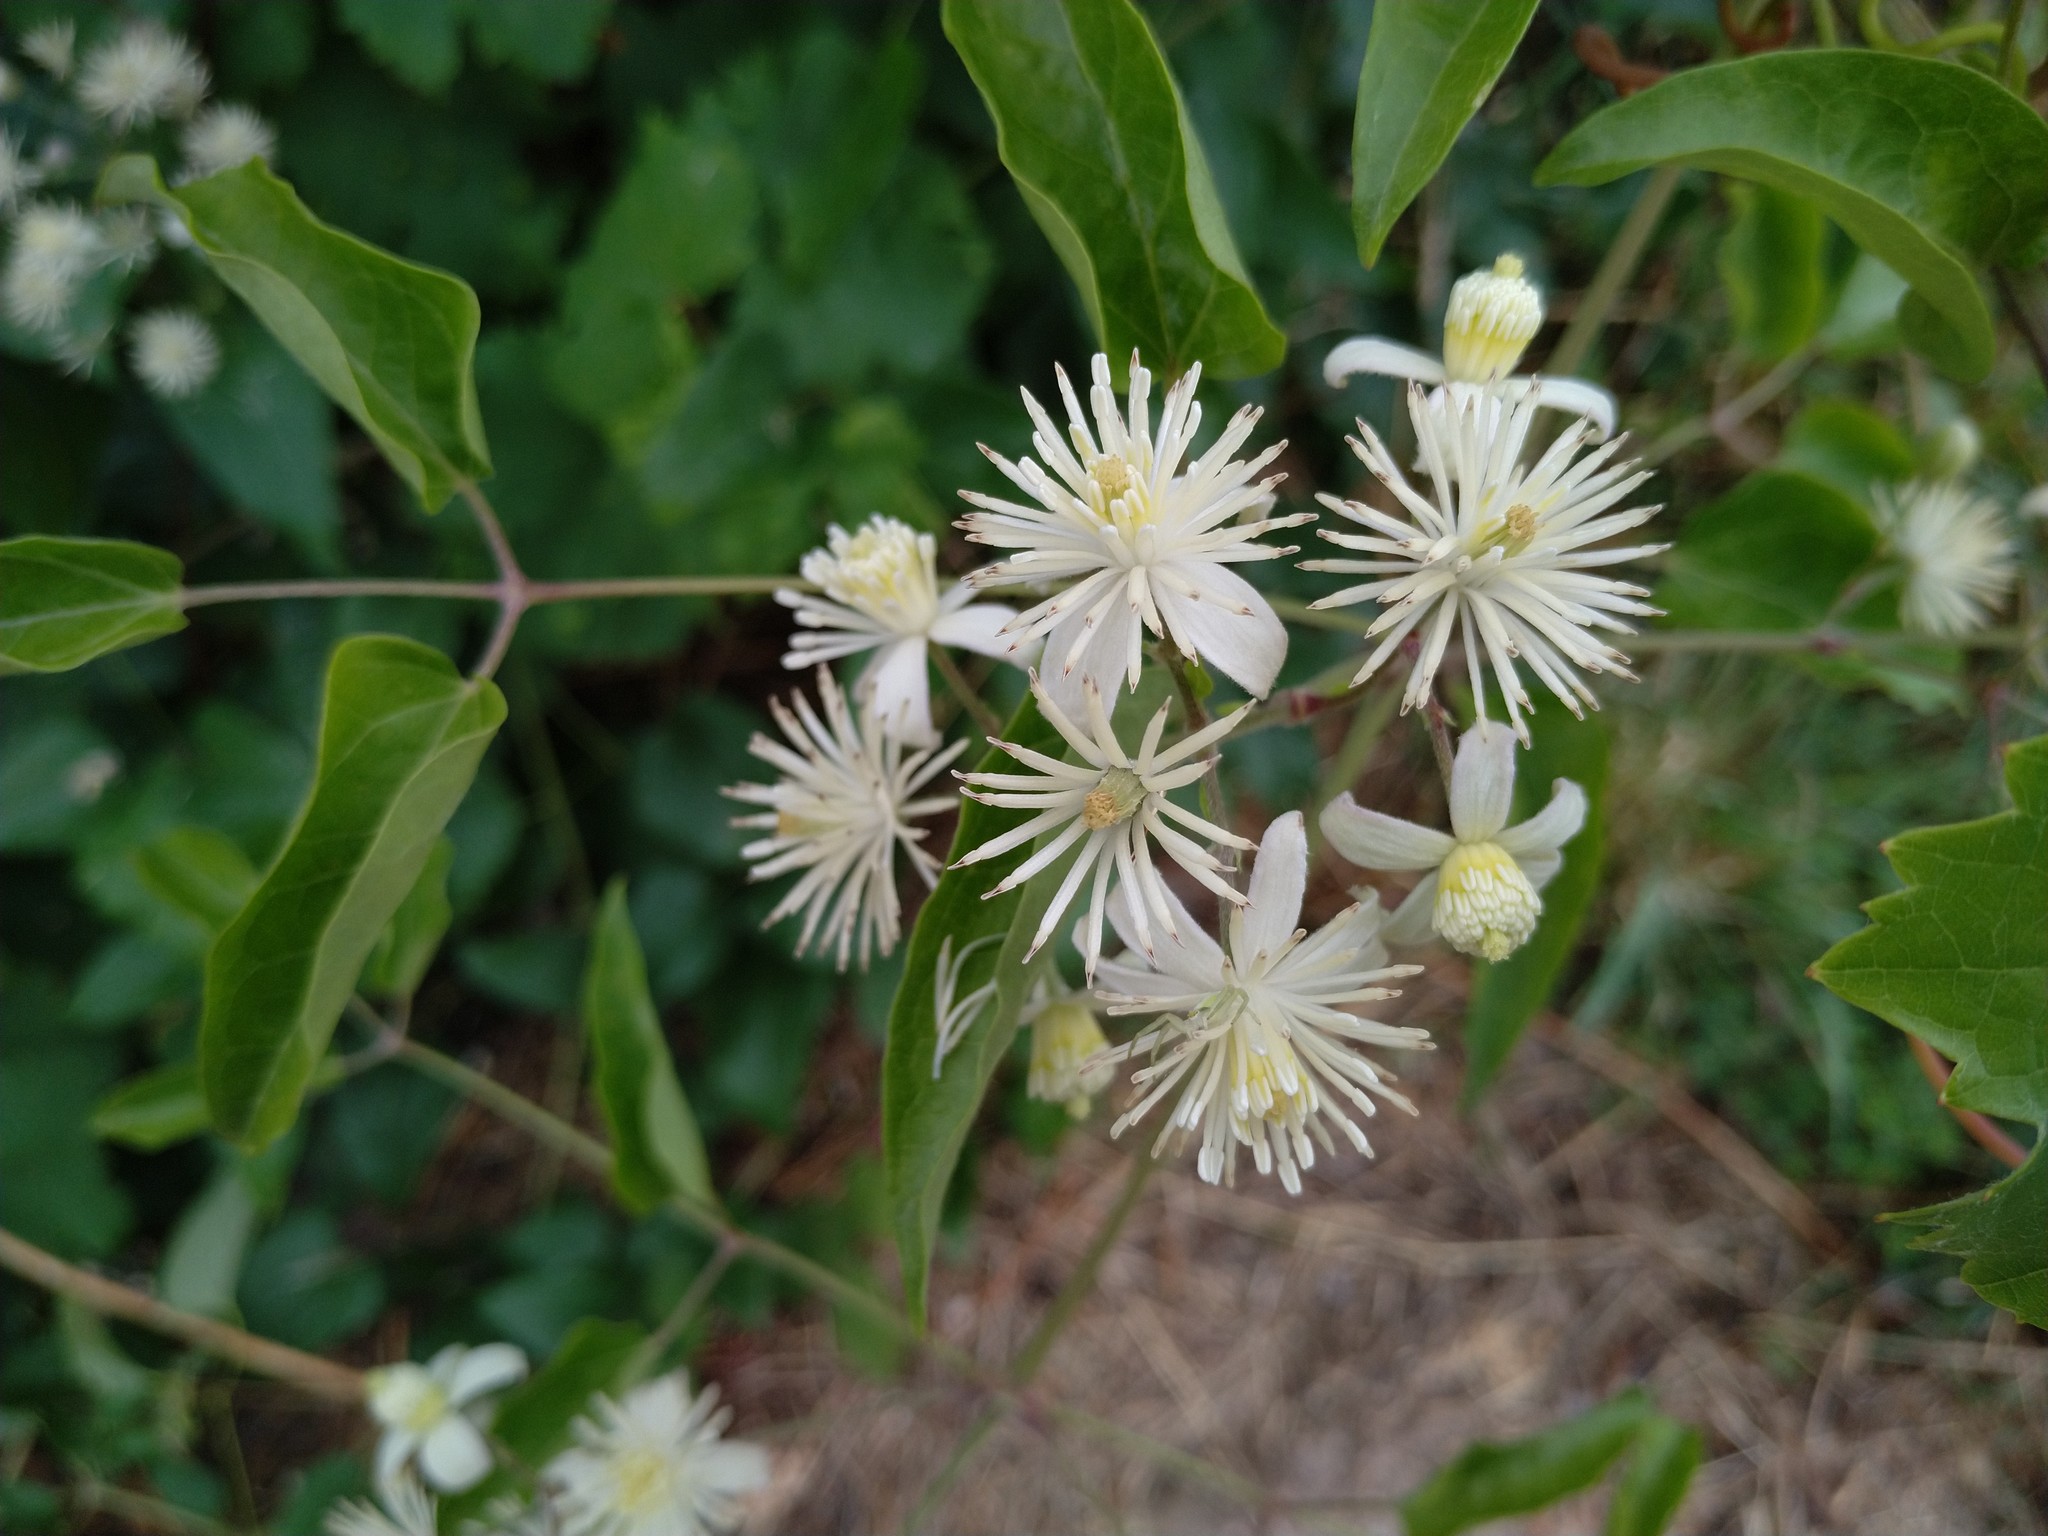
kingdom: Plantae
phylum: Tracheophyta
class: Magnoliopsida
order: Ranunculales
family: Ranunculaceae
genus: Clematis
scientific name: Clematis vitalba
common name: Evergreen clematis
